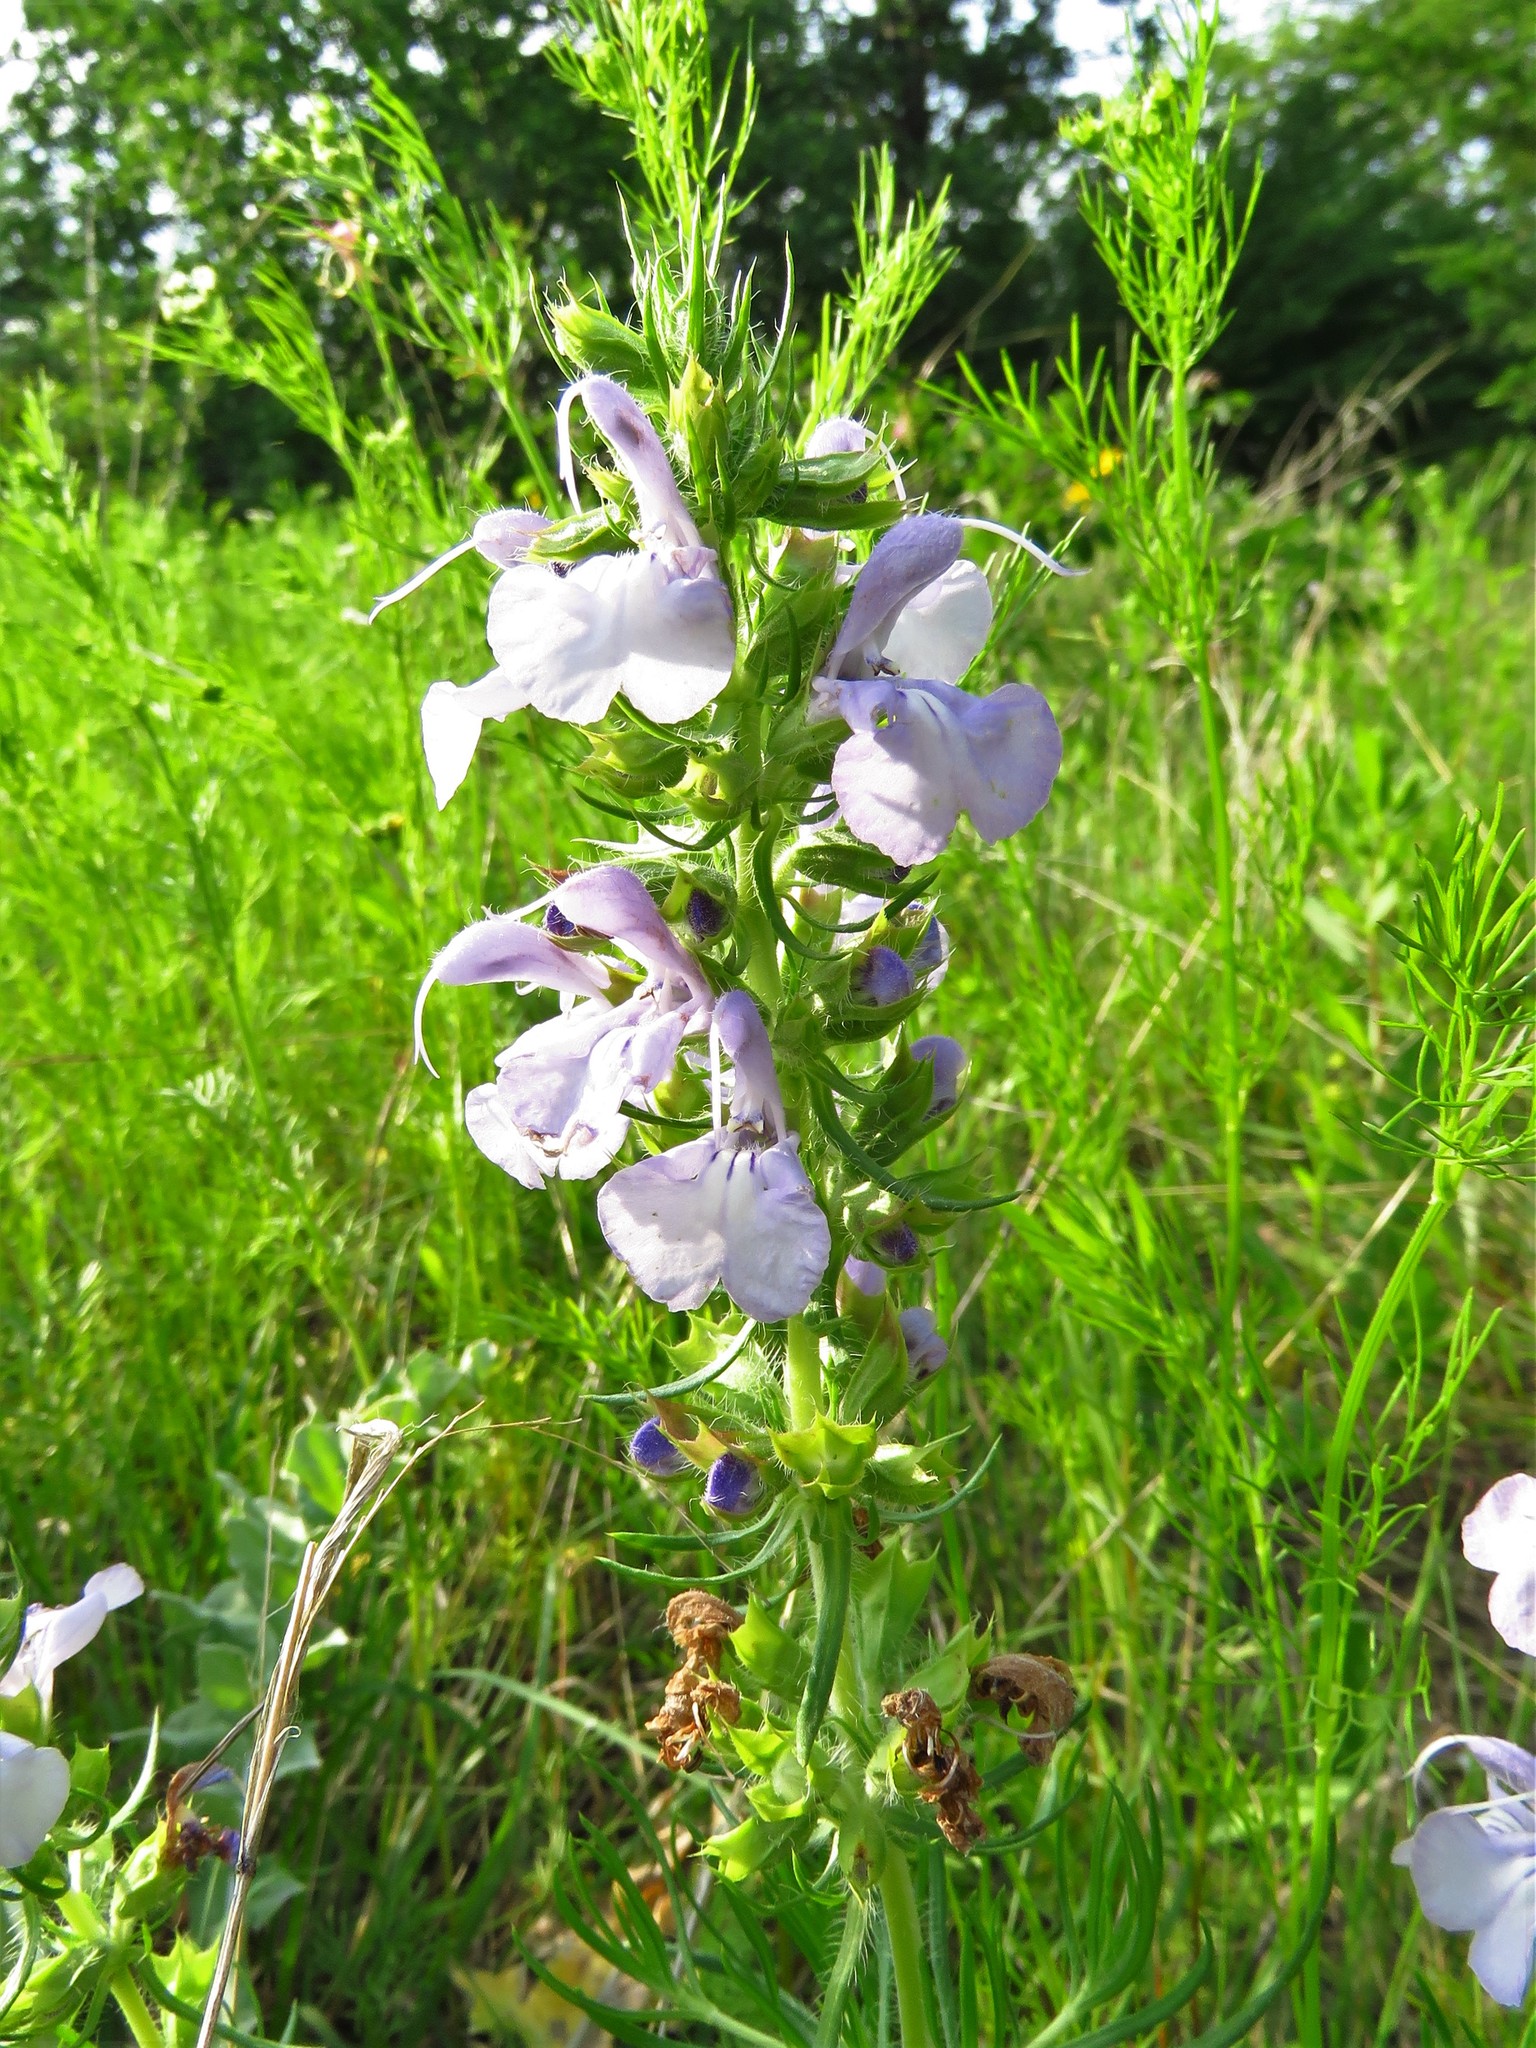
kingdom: Plantae
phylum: Tracheophyta
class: Magnoliopsida
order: Lamiales
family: Lamiaceae
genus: Salvia
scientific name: Salvia engelmannii
